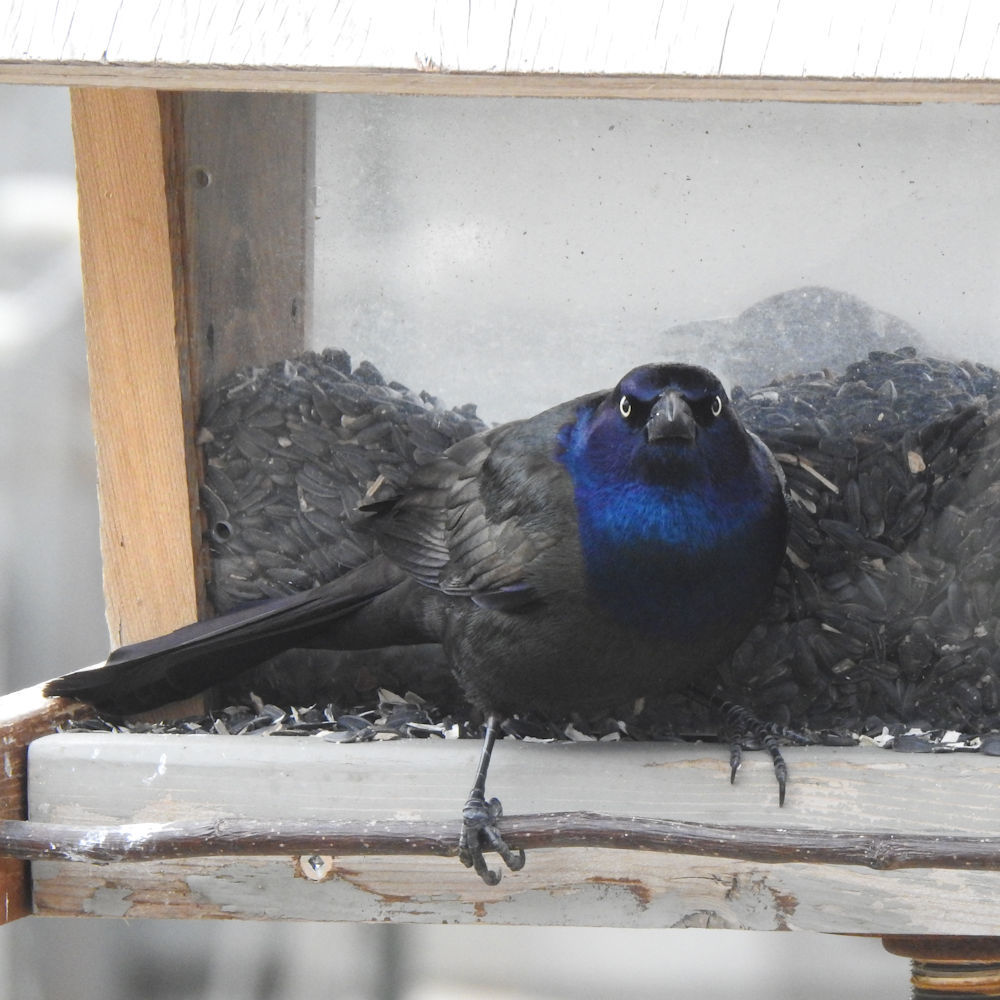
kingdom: Animalia
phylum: Chordata
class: Aves
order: Passeriformes
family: Icteridae
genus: Quiscalus
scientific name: Quiscalus quiscula
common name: Common grackle
